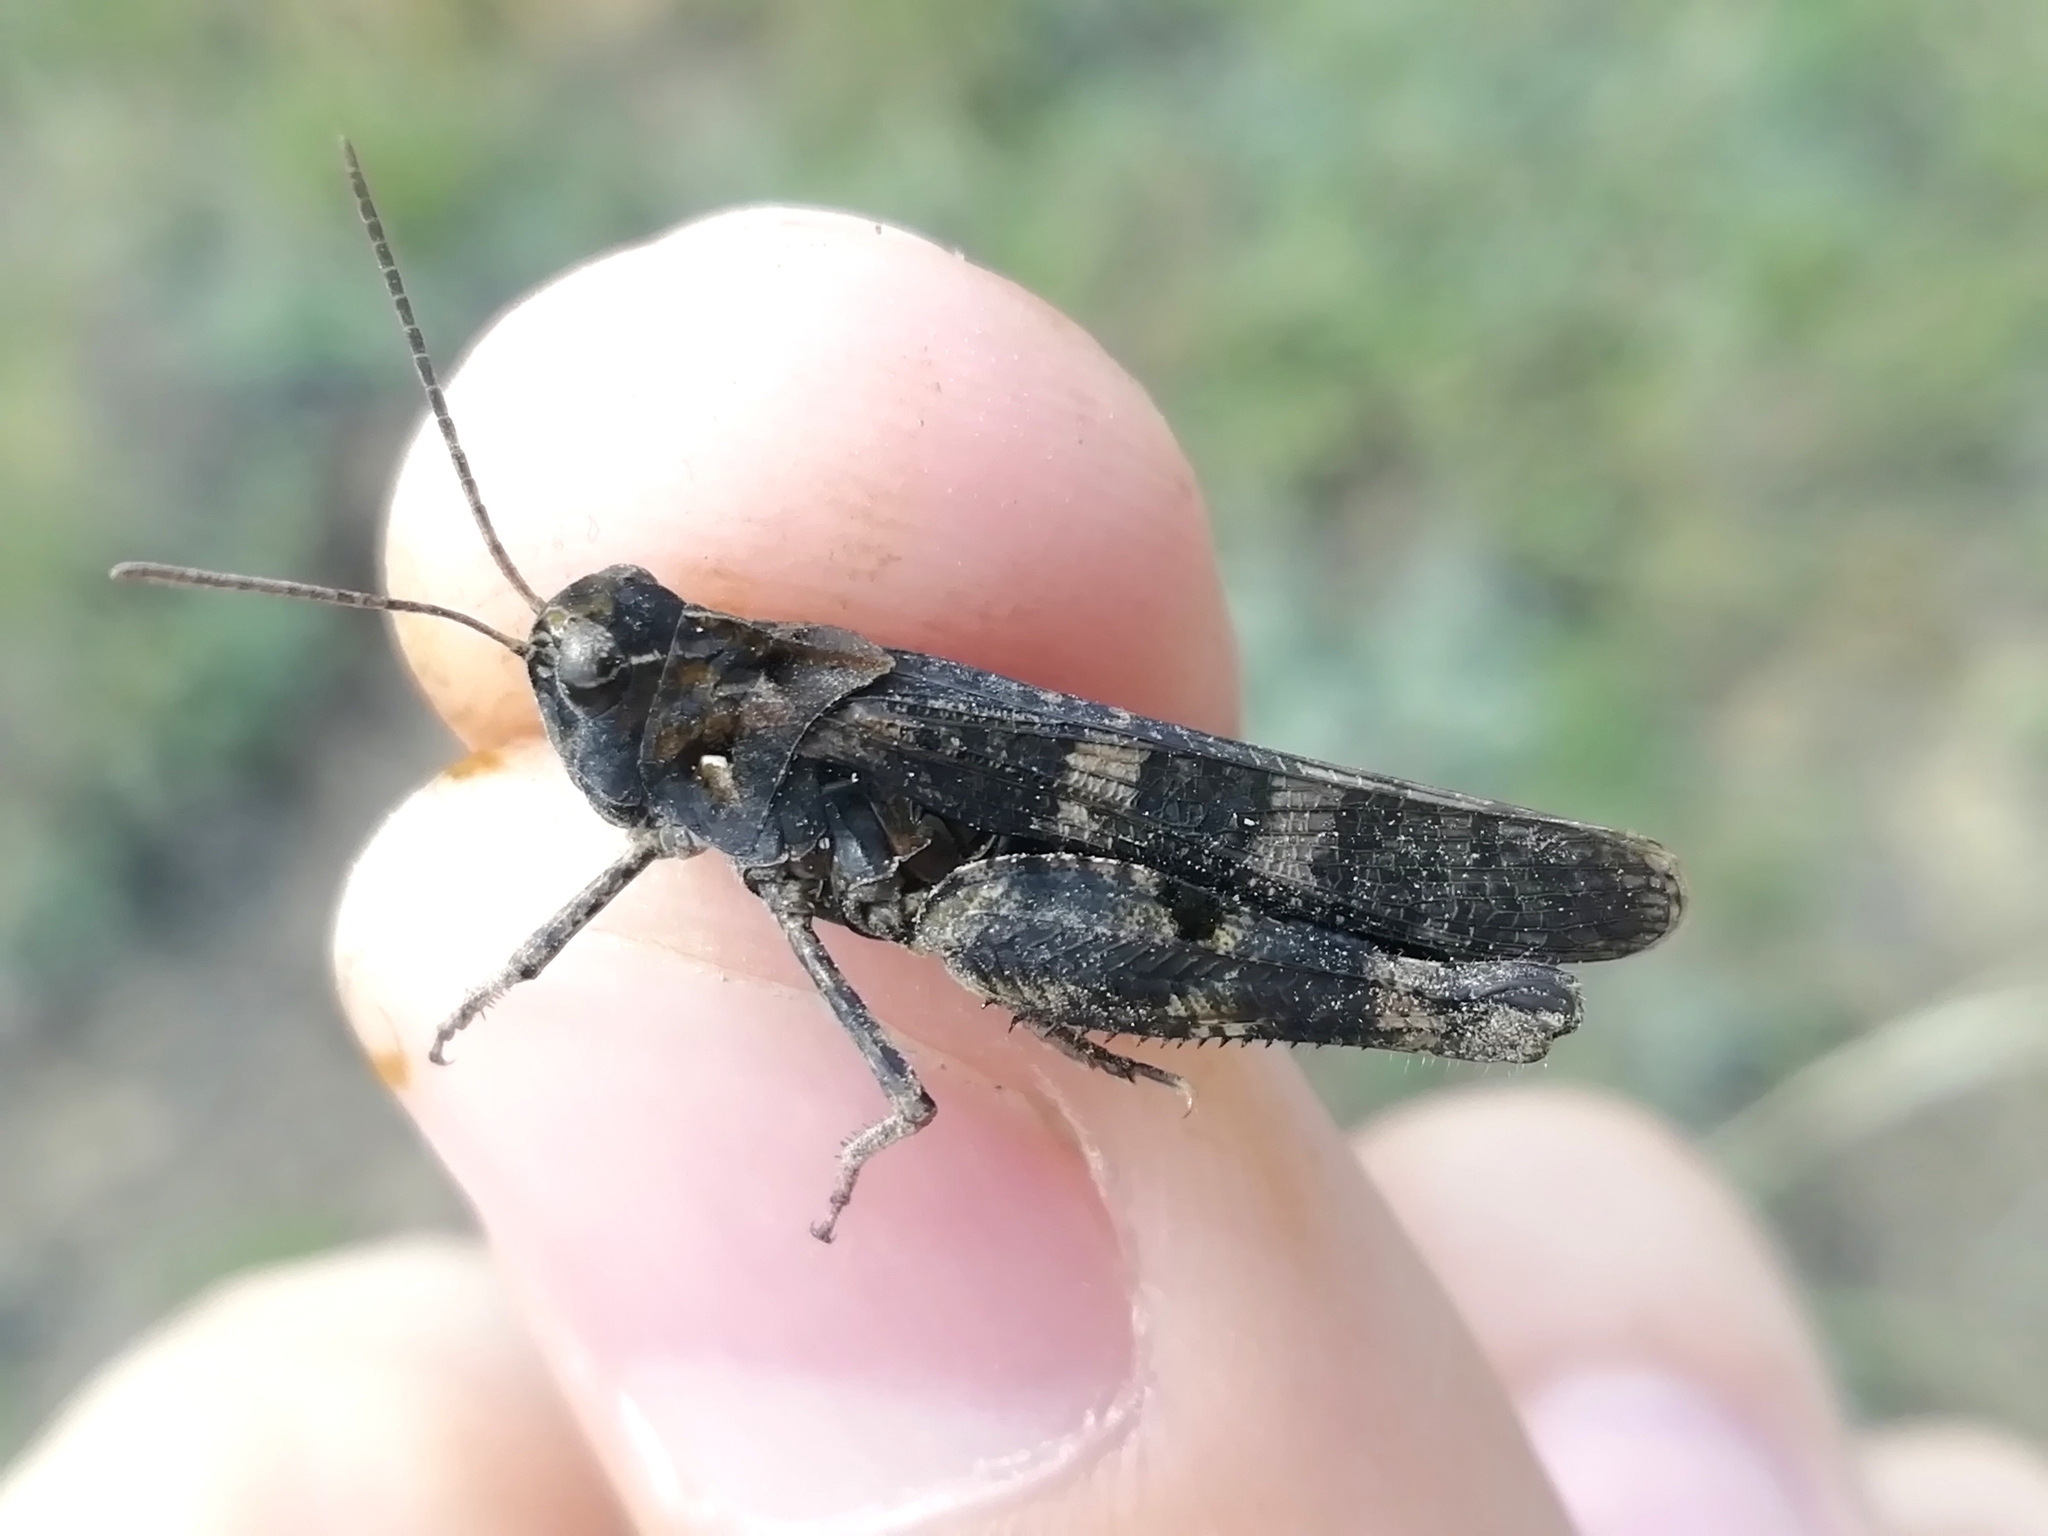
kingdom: Animalia
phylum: Arthropoda
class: Insecta
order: Orthoptera
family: Acrididae
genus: Celes
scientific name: Celes variabilis
